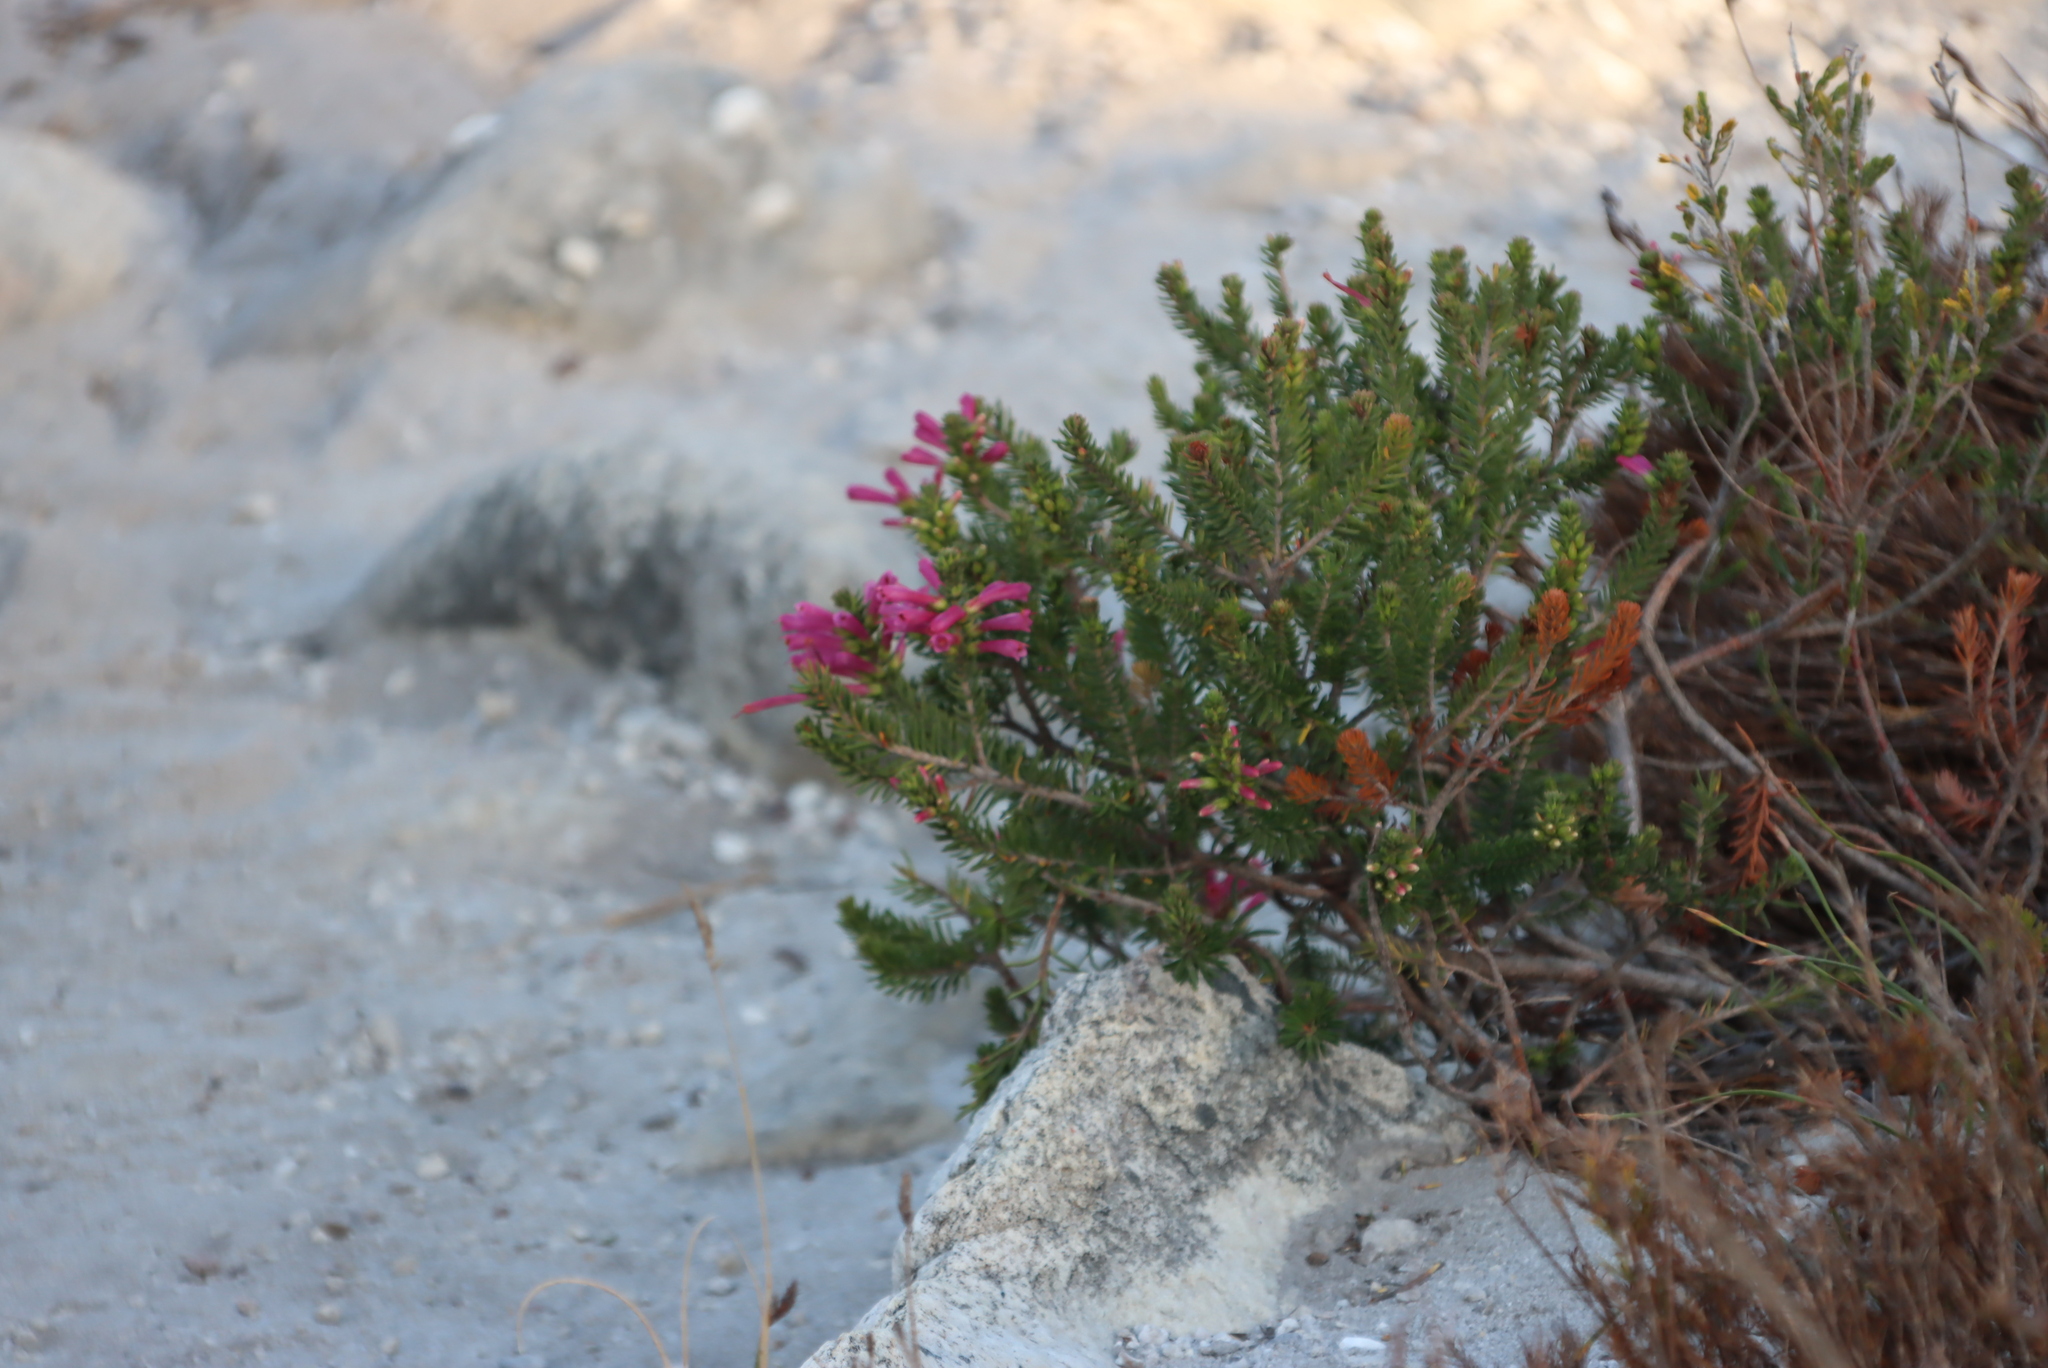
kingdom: Plantae
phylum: Tracheophyta
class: Magnoliopsida
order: Ericales
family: Ericaceae
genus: Erica
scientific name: Erica abietina
